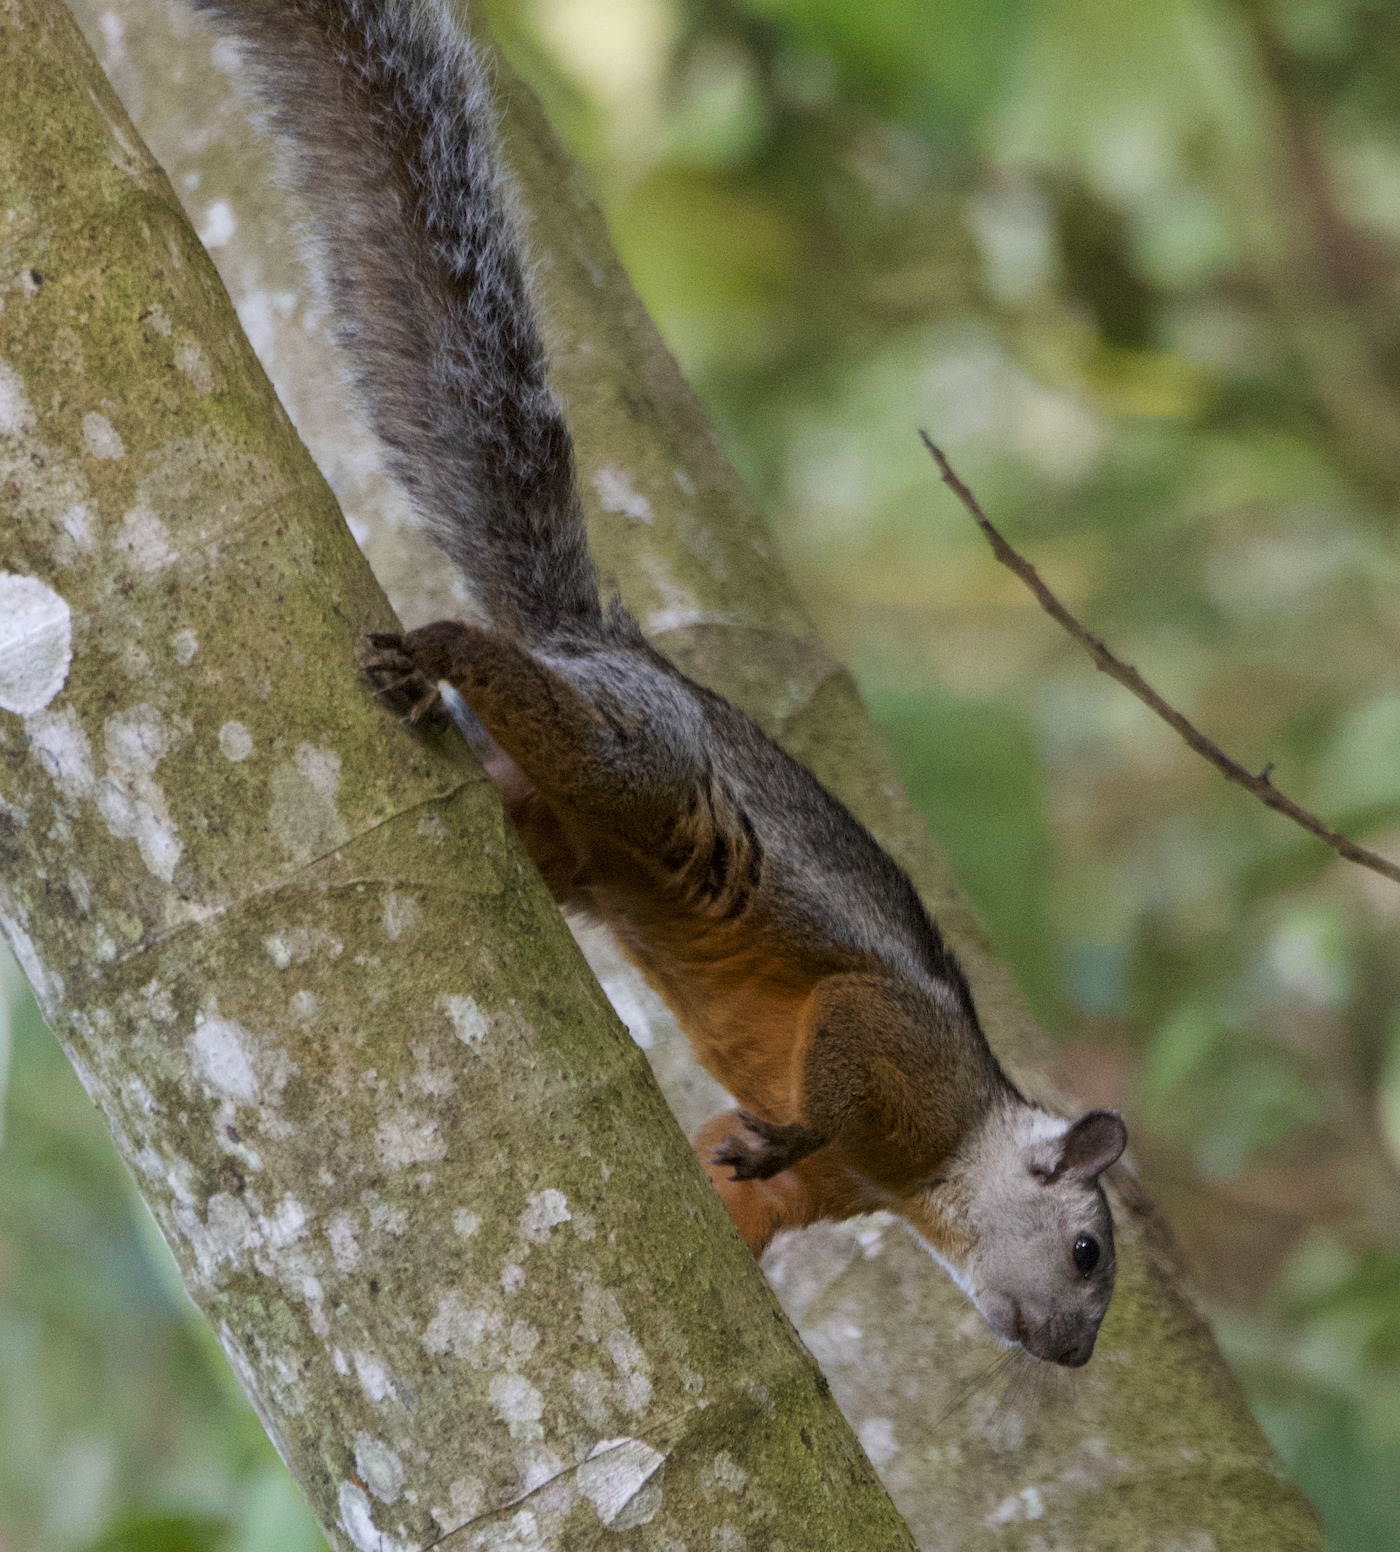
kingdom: Animalia
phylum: Chordata
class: Mammalia
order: Rodentia
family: Sciuridae
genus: Sciurus
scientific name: Sciurus variegatoides
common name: Variegated squirrel
